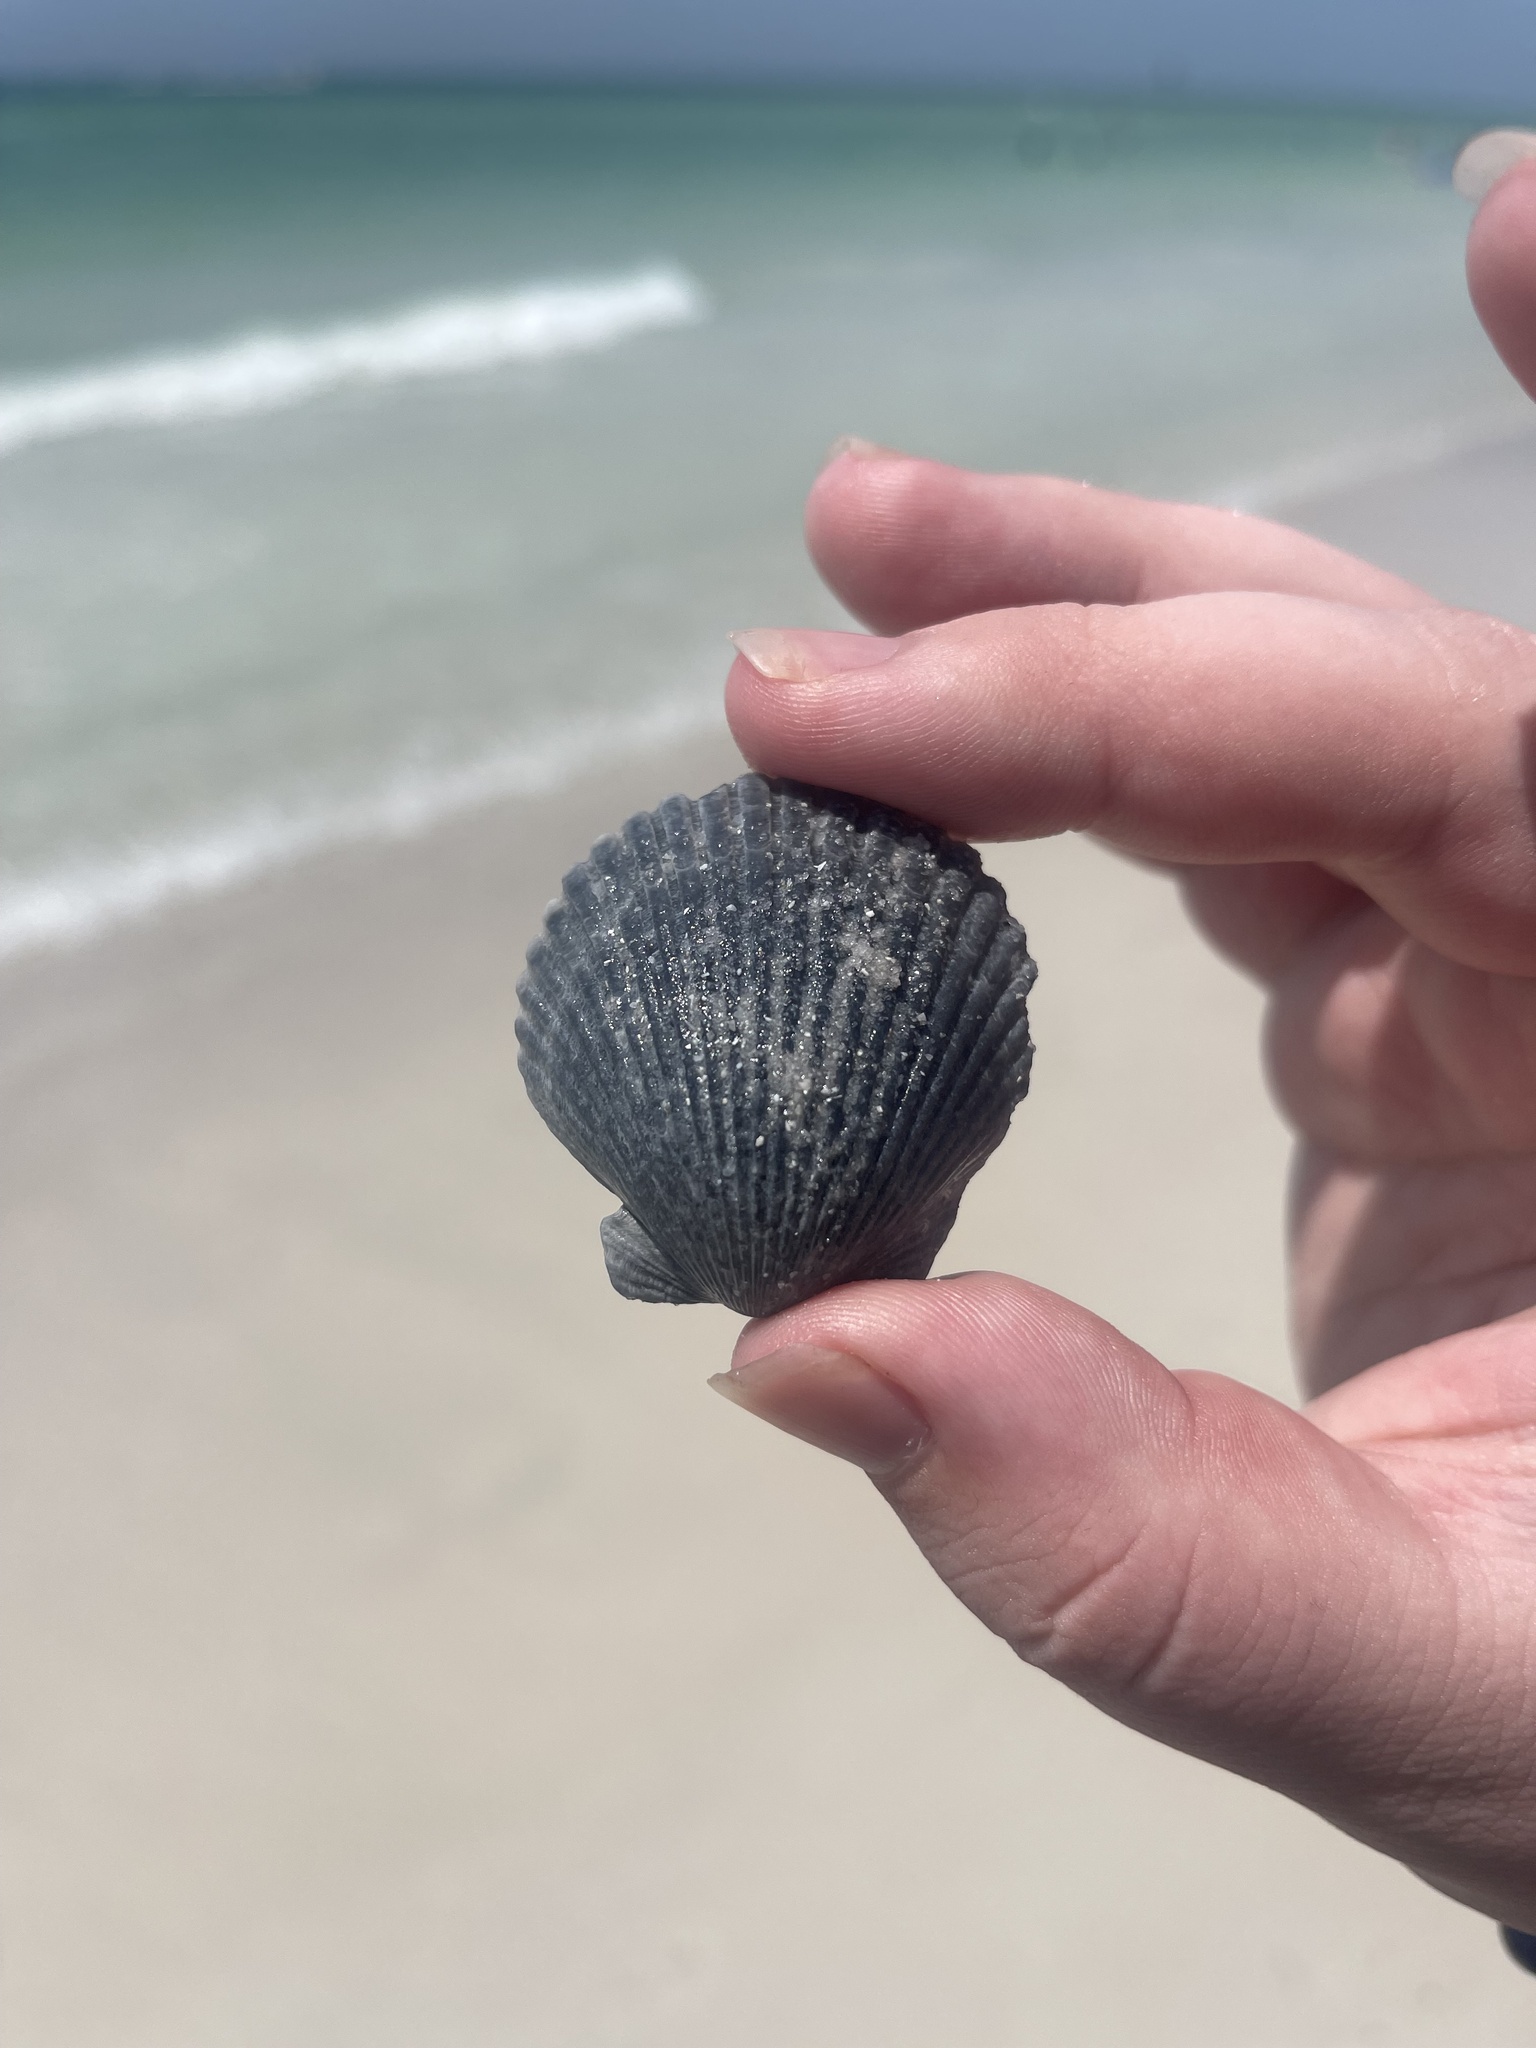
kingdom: Animalia
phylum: Mollusca
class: Bivalvia
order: Pectinida
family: Pectinidae
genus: Argopecten
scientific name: Argopecten irradians
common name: Atlantic bay scallop
